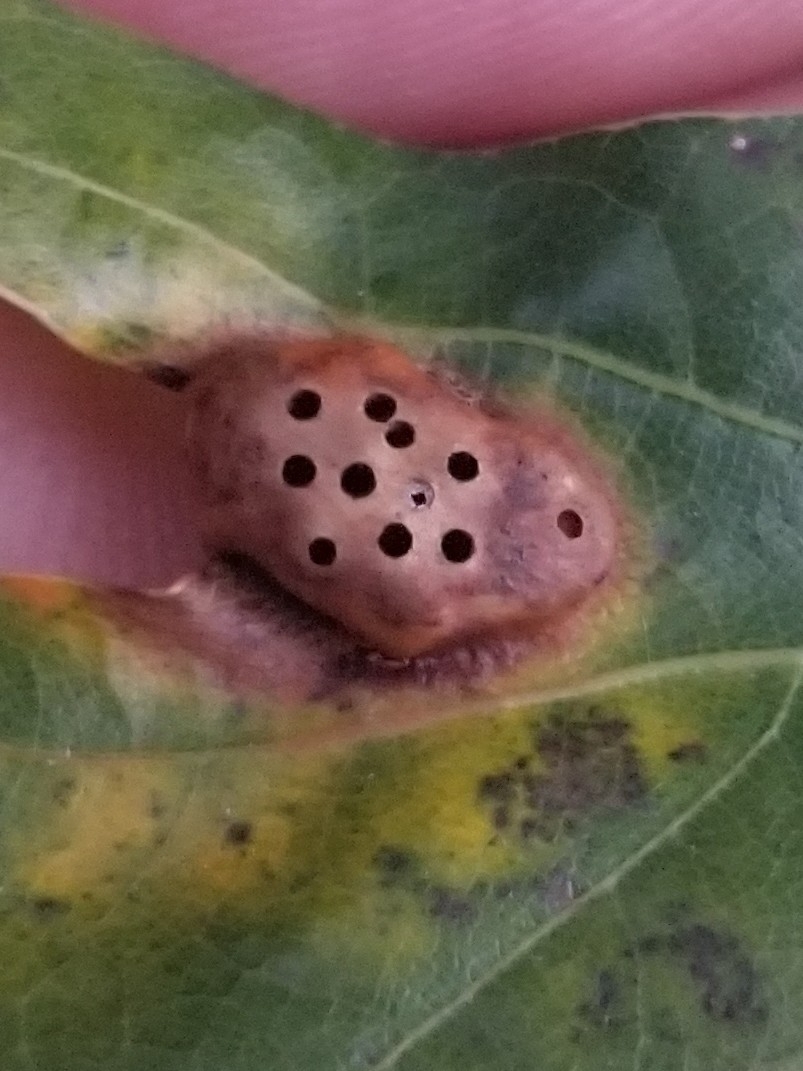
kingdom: Animalia
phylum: Arthropoda
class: Insecta
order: Hymenoptera
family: Cynipidae
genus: Callirhytis
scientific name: Callirhytis
